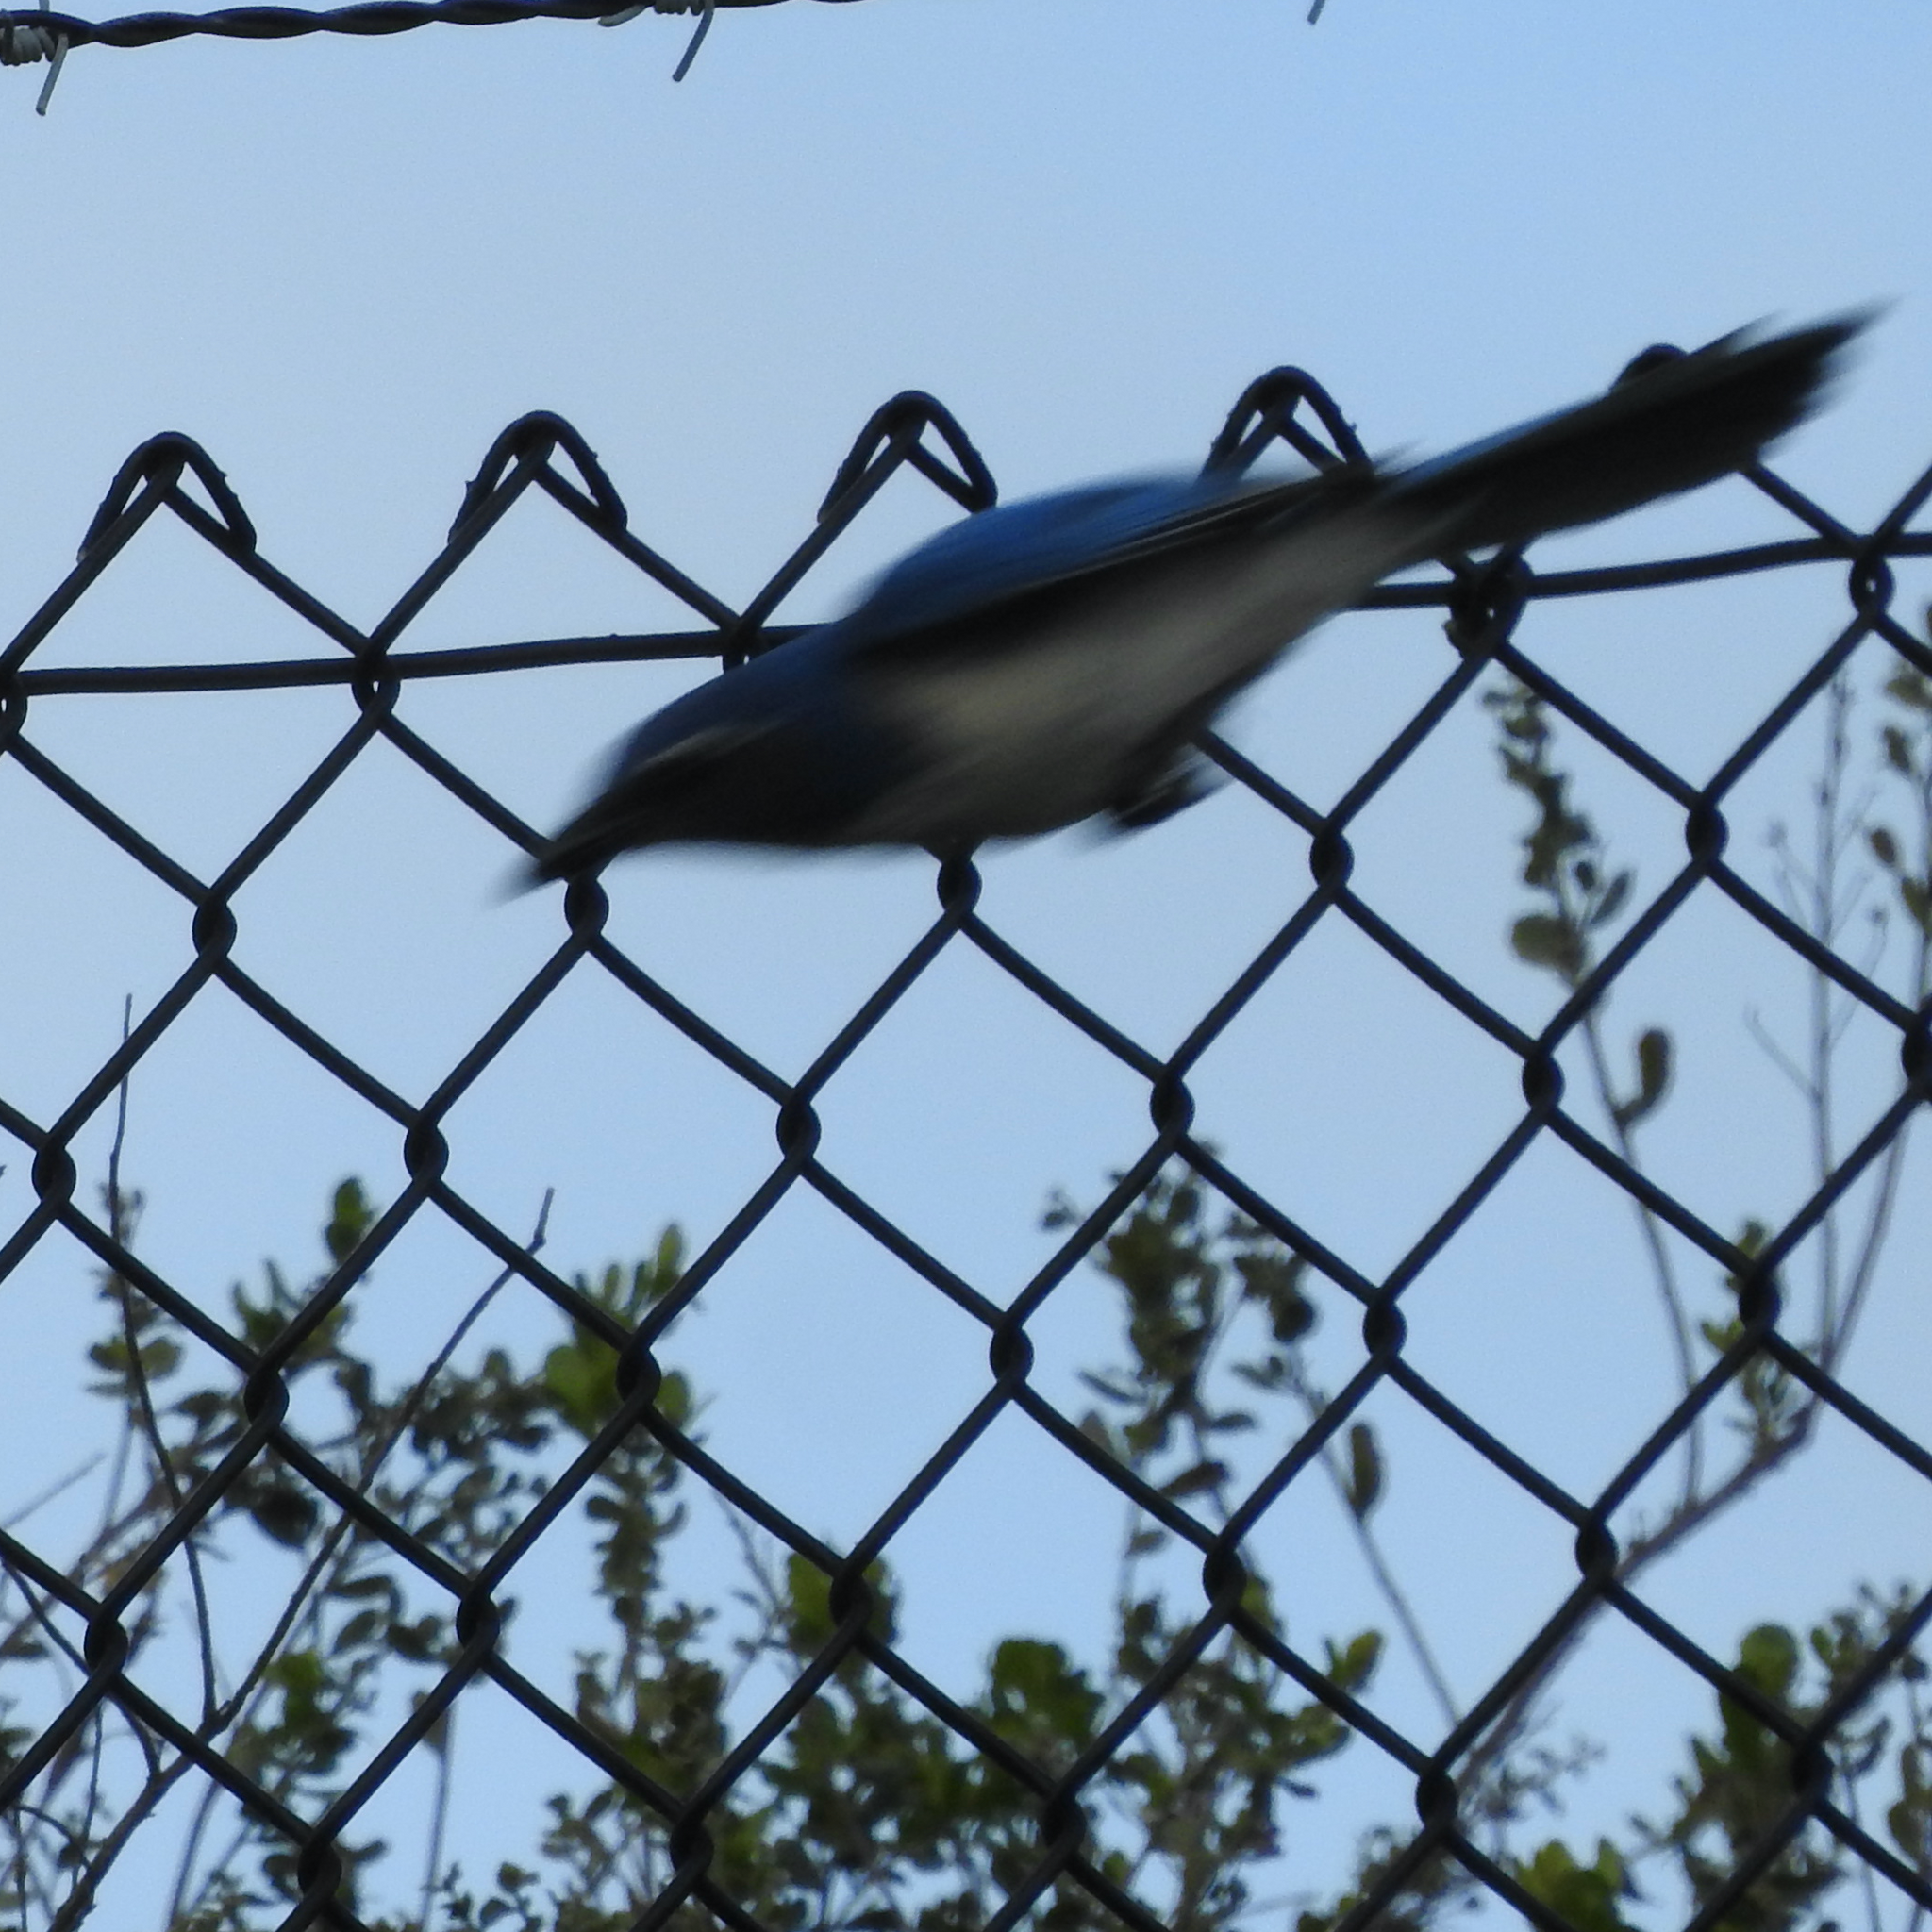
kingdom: Animalia
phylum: Chordata
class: Aves
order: Passeriformes
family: Corvidae
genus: Aphelocoma
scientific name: Aphelocoma californica
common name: California scrub-jay
